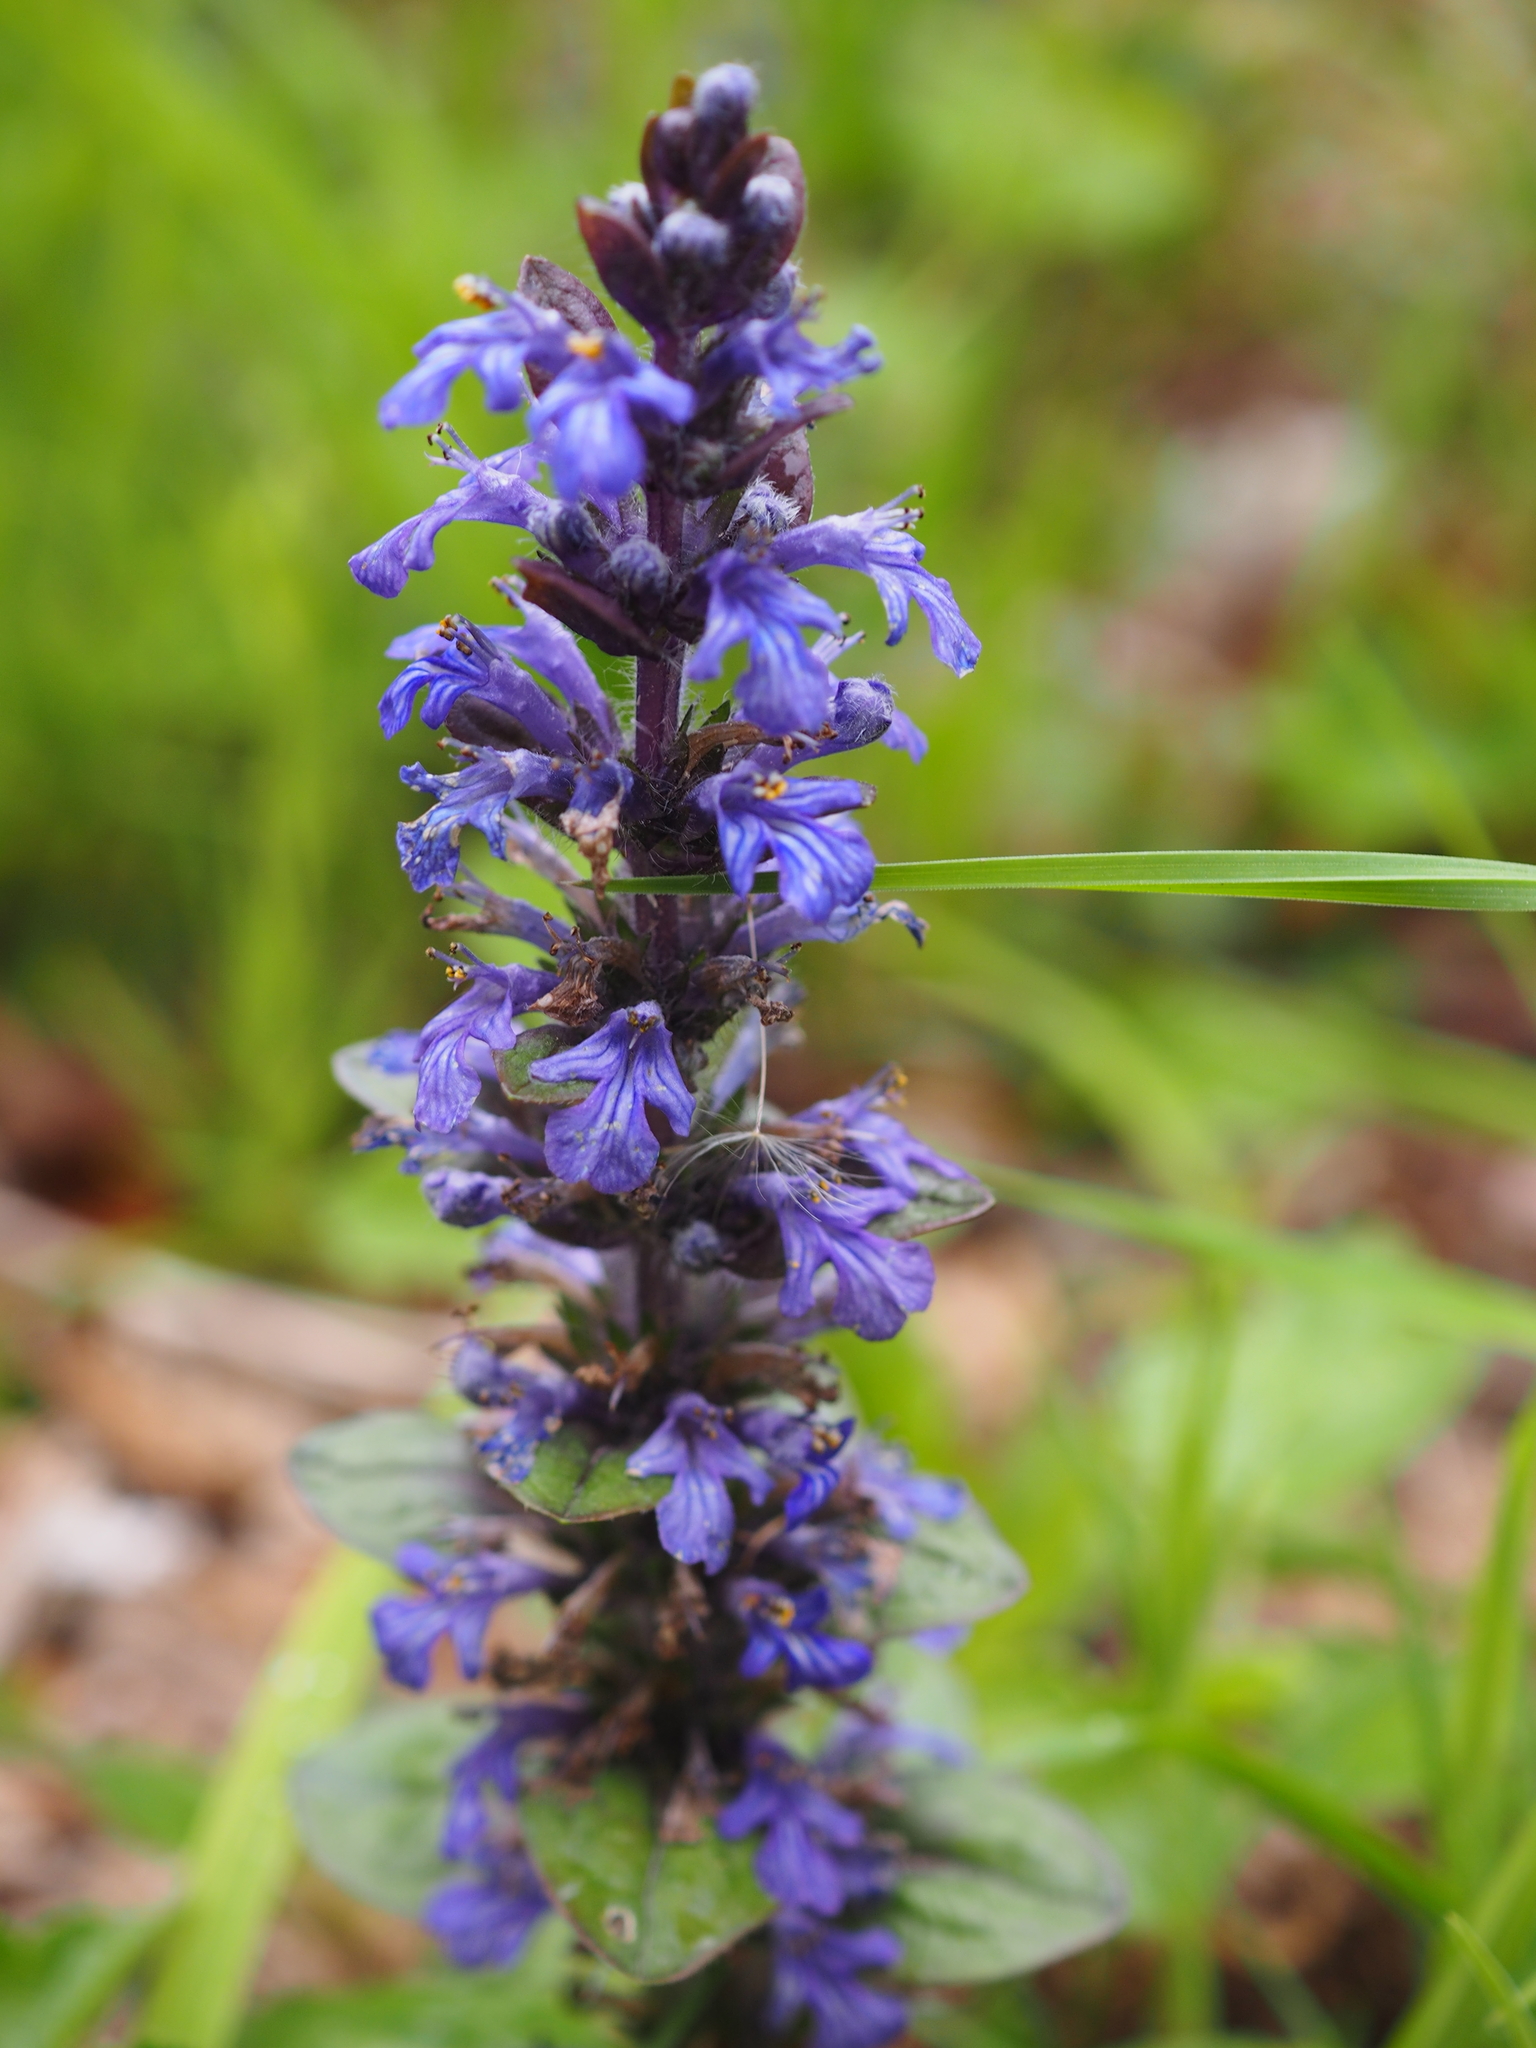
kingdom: Plantae
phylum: Tracheophyta
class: Magnoliopsida
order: Lamiales
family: Lamiaceae
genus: Ajuga
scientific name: Ajuga reptans
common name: Bugle
